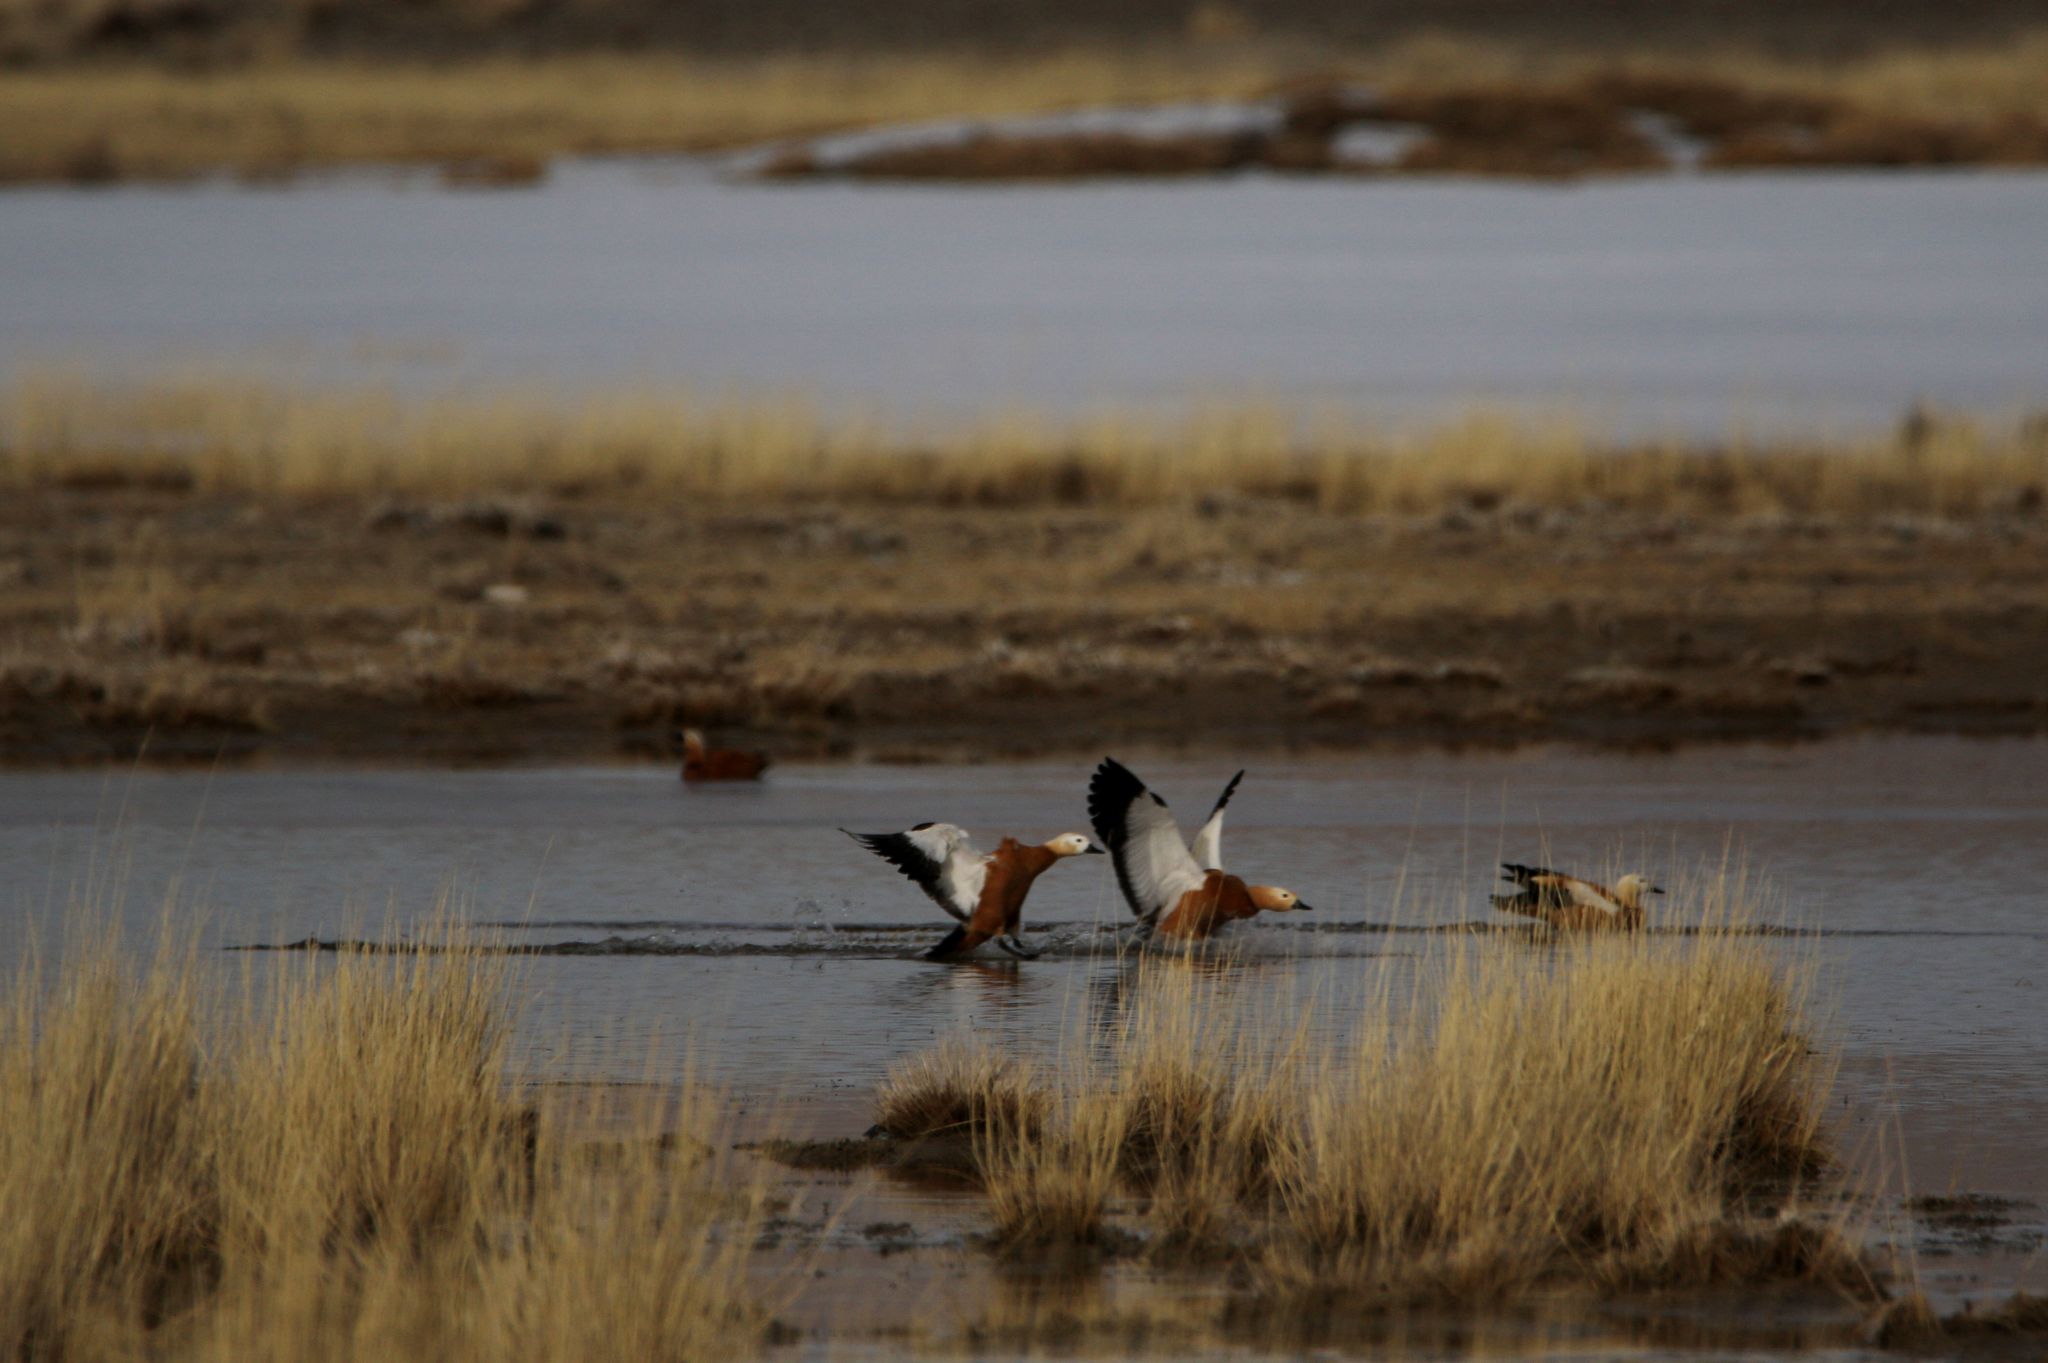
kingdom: Animalia
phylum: Chordata
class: Aves
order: Anseriformes
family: Anatidae
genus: Tadorna
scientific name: Tadorna ferruginea
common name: Ruddy shelduck
